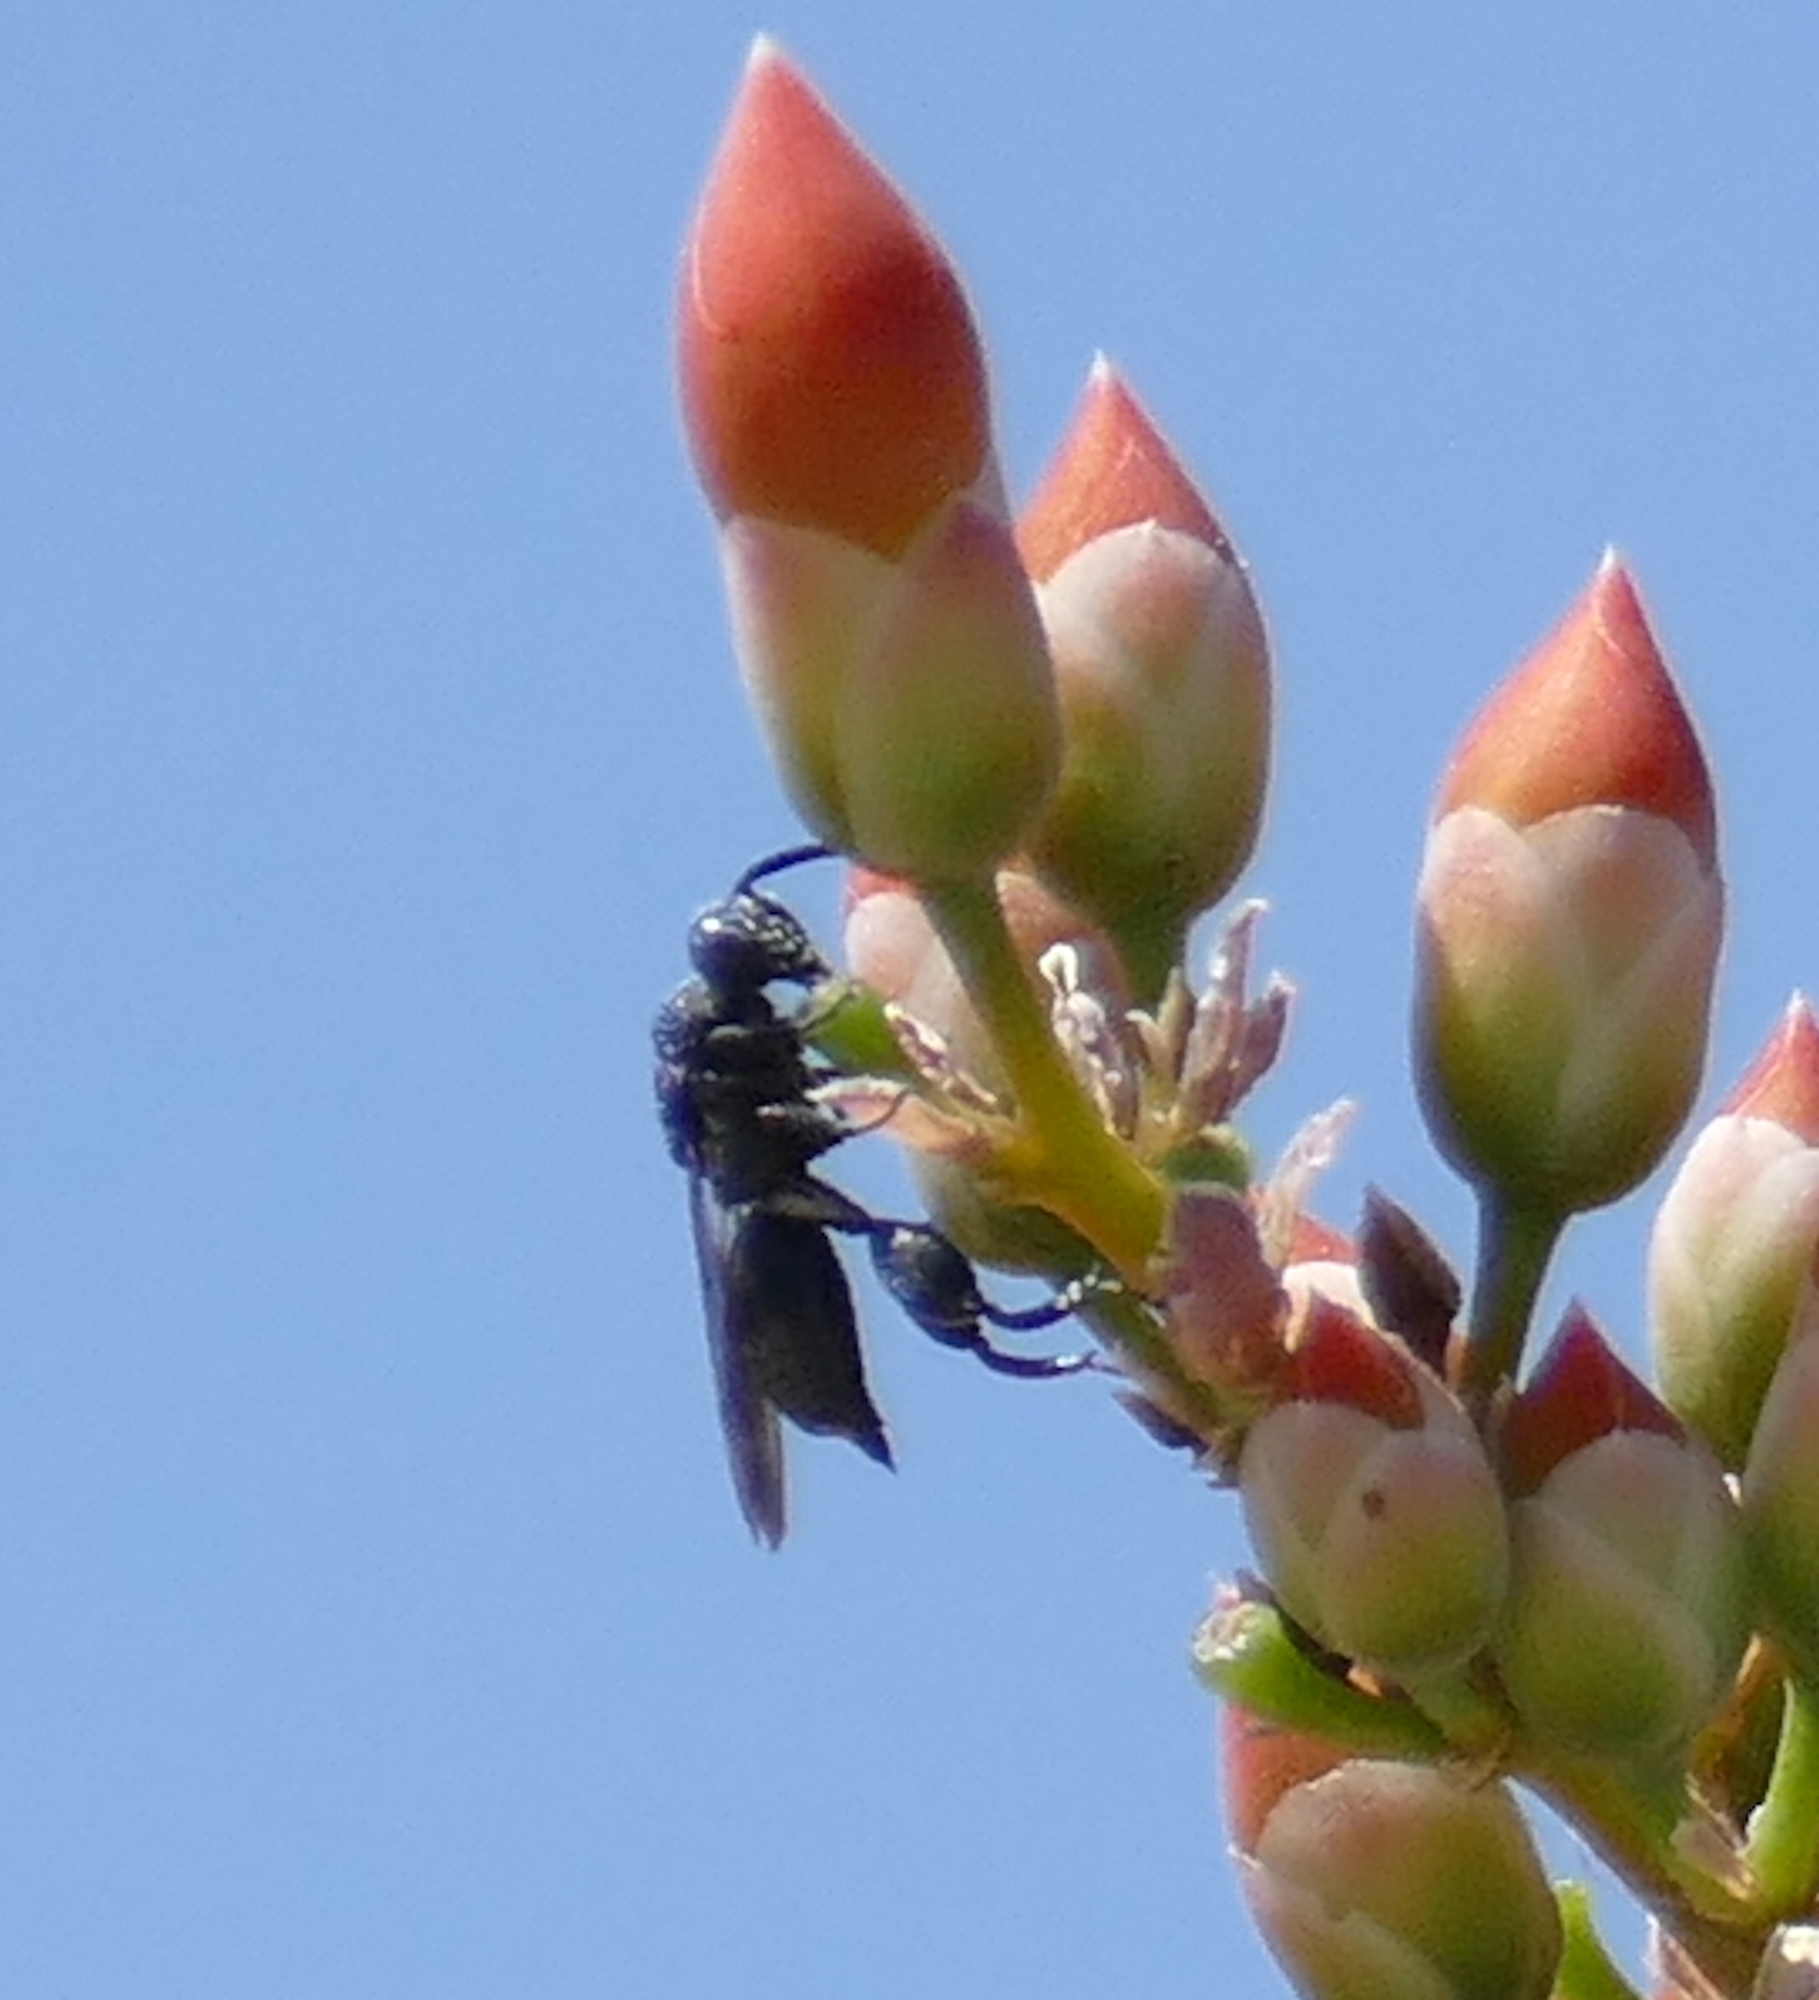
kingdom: Animalia
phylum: Arthropoda
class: Insecta
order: Hymenoptera
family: Chalcididae
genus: Acanthochalcis
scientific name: Acanthochalcis
